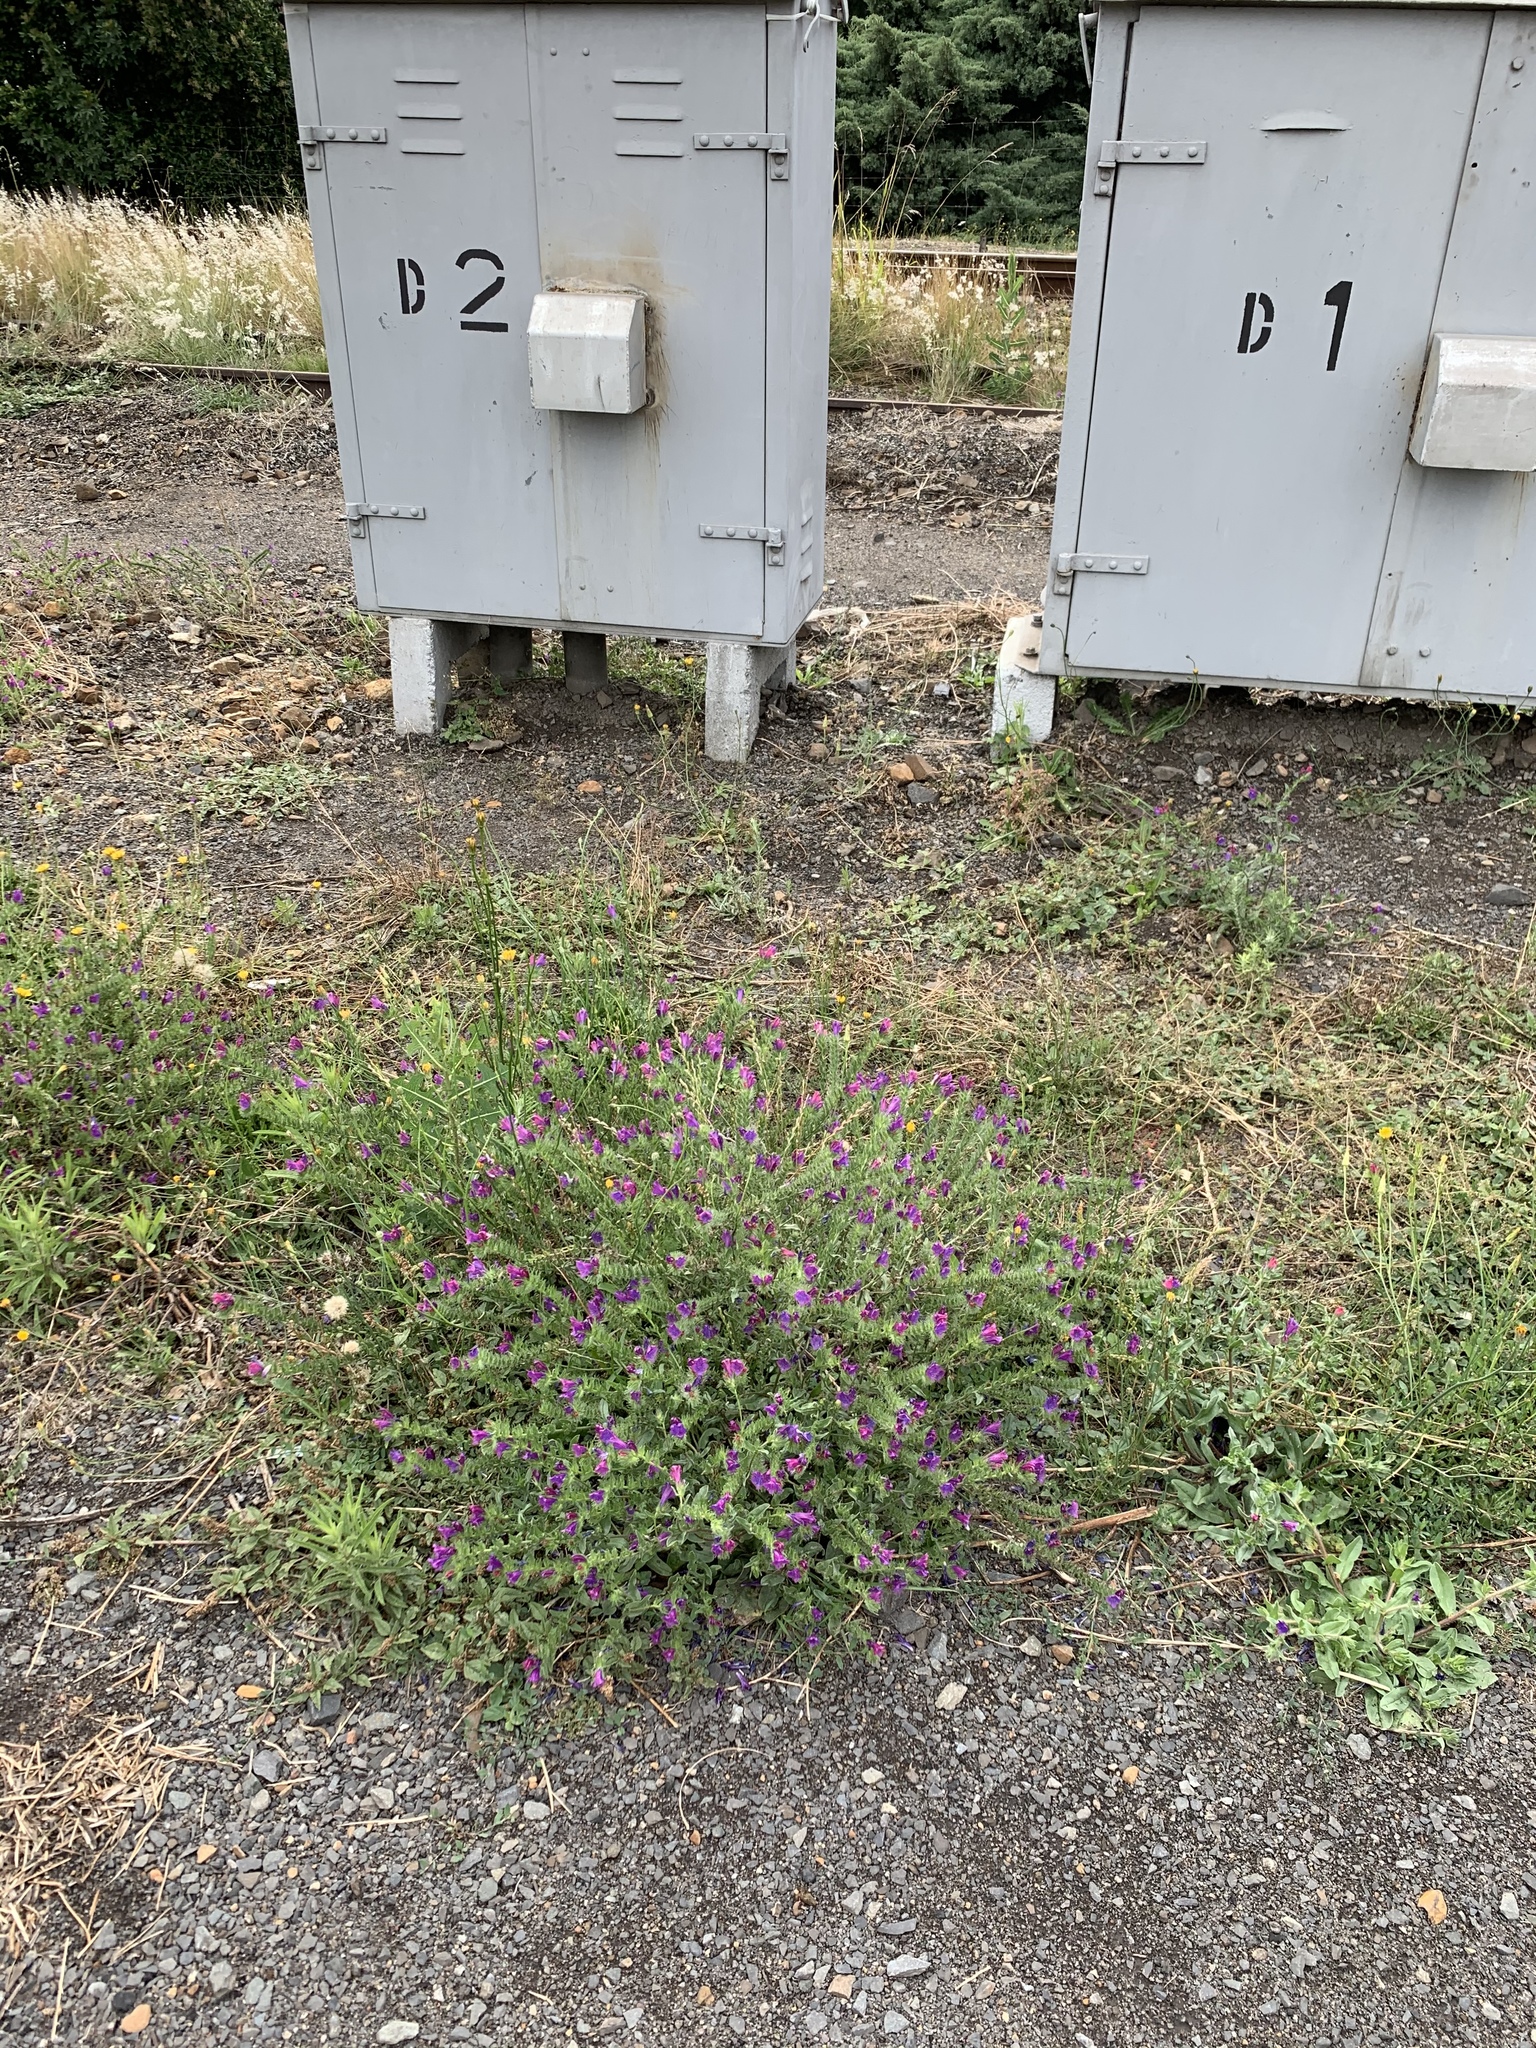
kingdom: Plantae
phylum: Tracheophyta
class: Magnoliopsida
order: Boraginales
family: Boraginaceae
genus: Echium
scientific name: Echium plantagineum
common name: Purple viper's-bugloss
